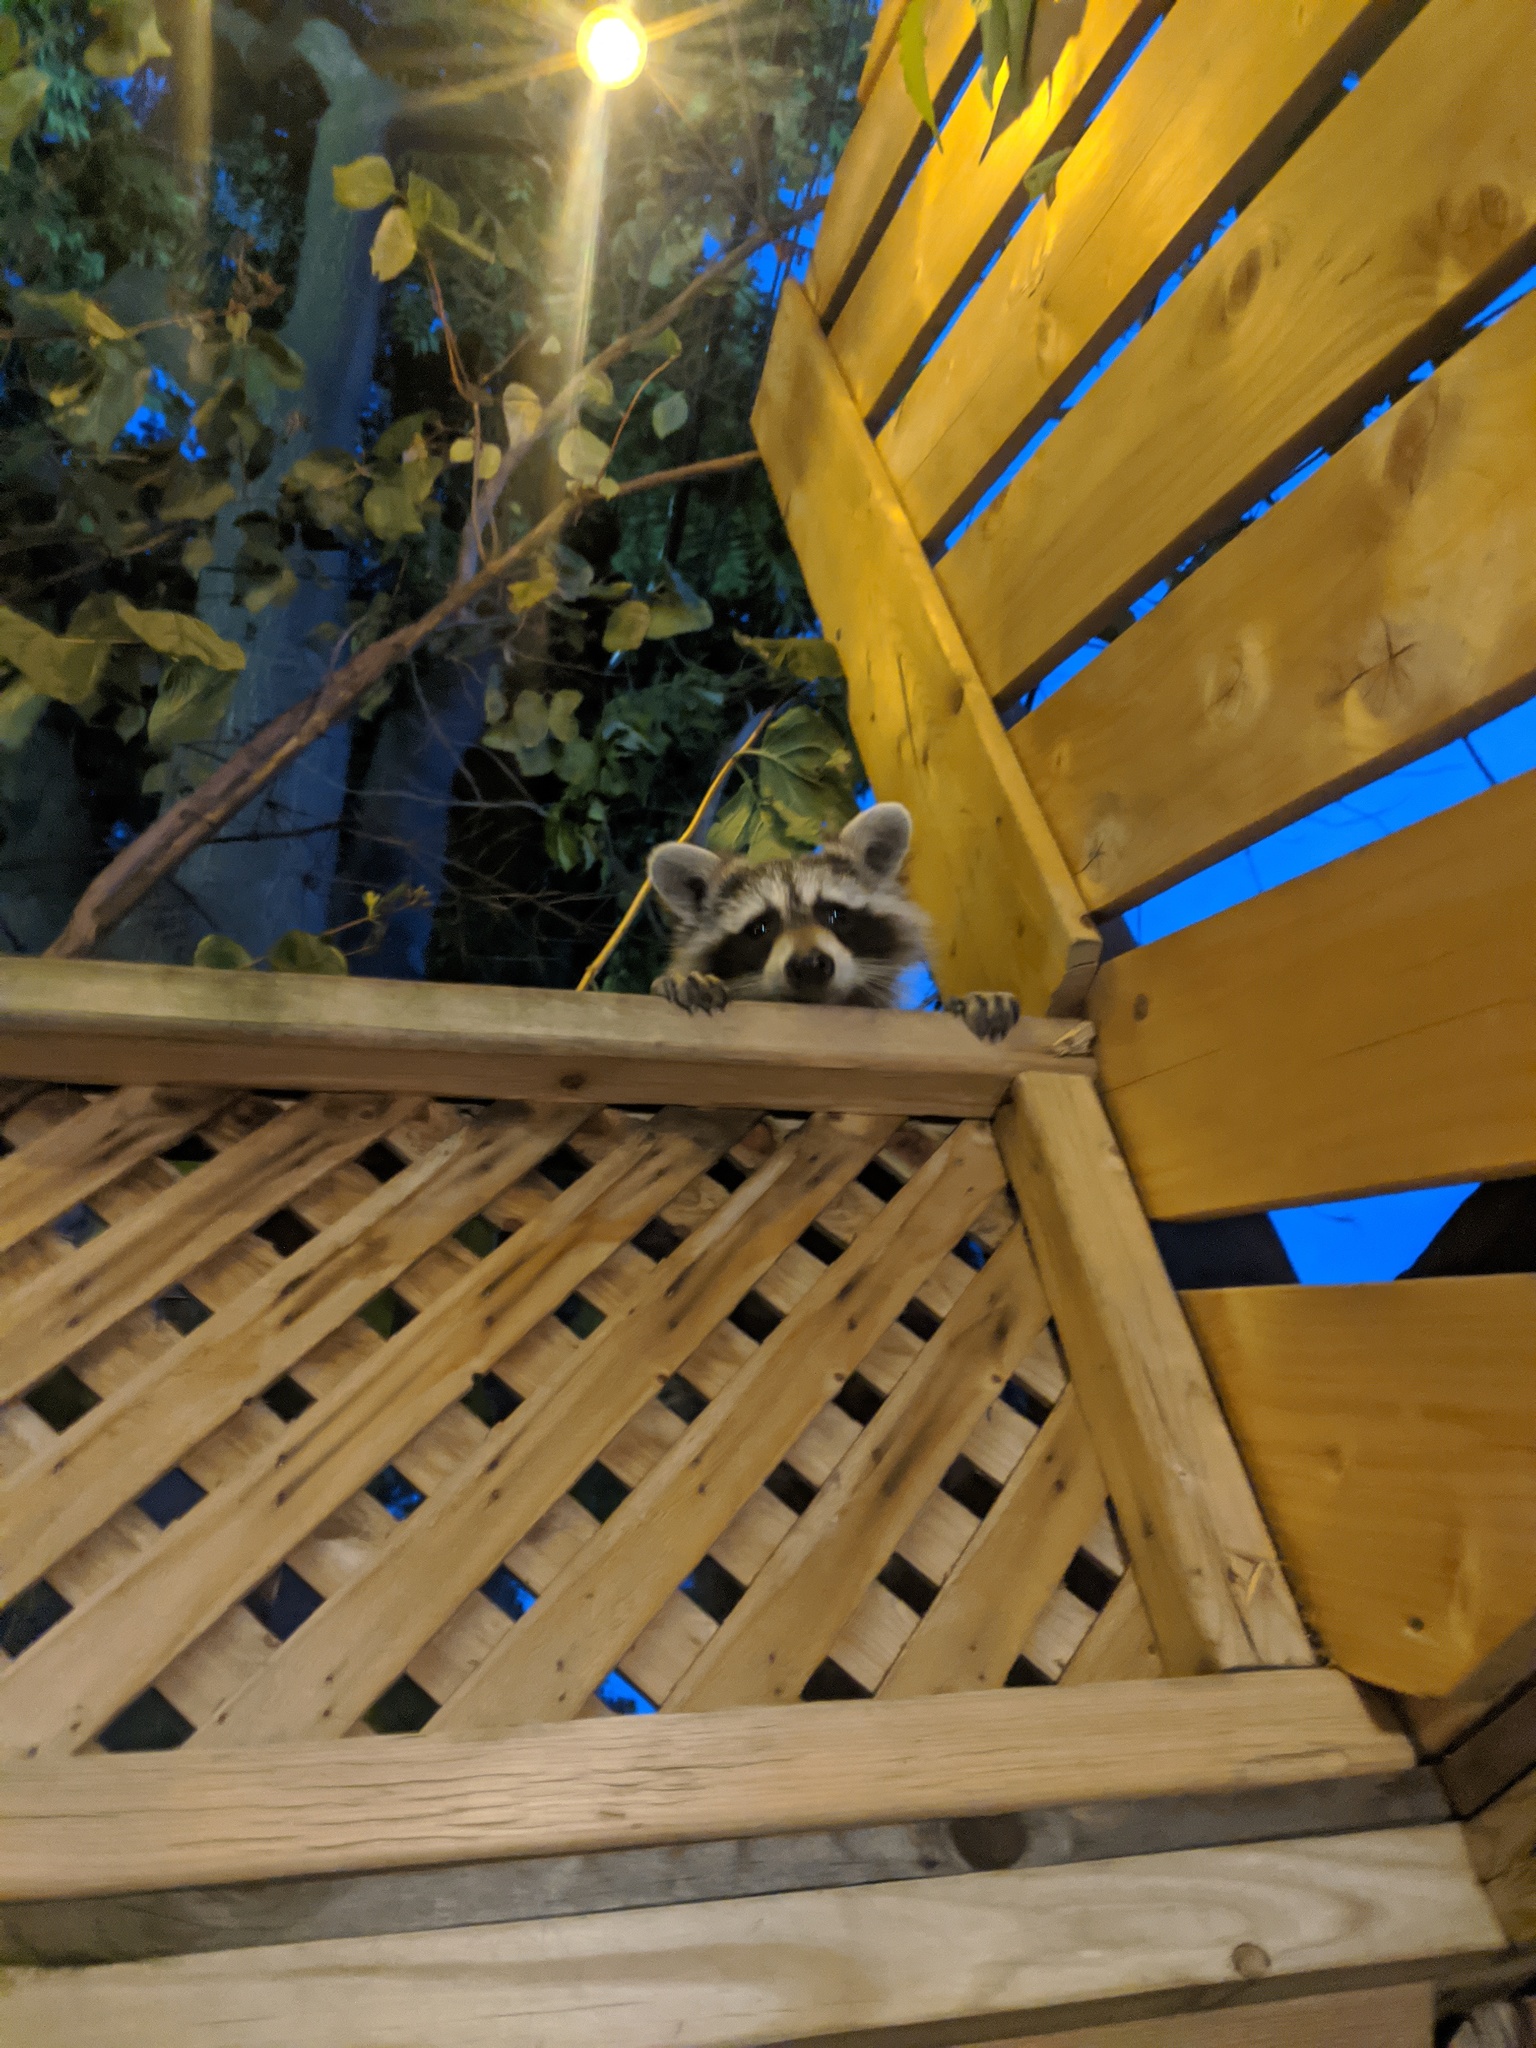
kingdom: Animalia
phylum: Chordata
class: Mammalia
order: Carnivora
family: Procyonidae
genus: Procyon
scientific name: Procyon lotor
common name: Raccoon
